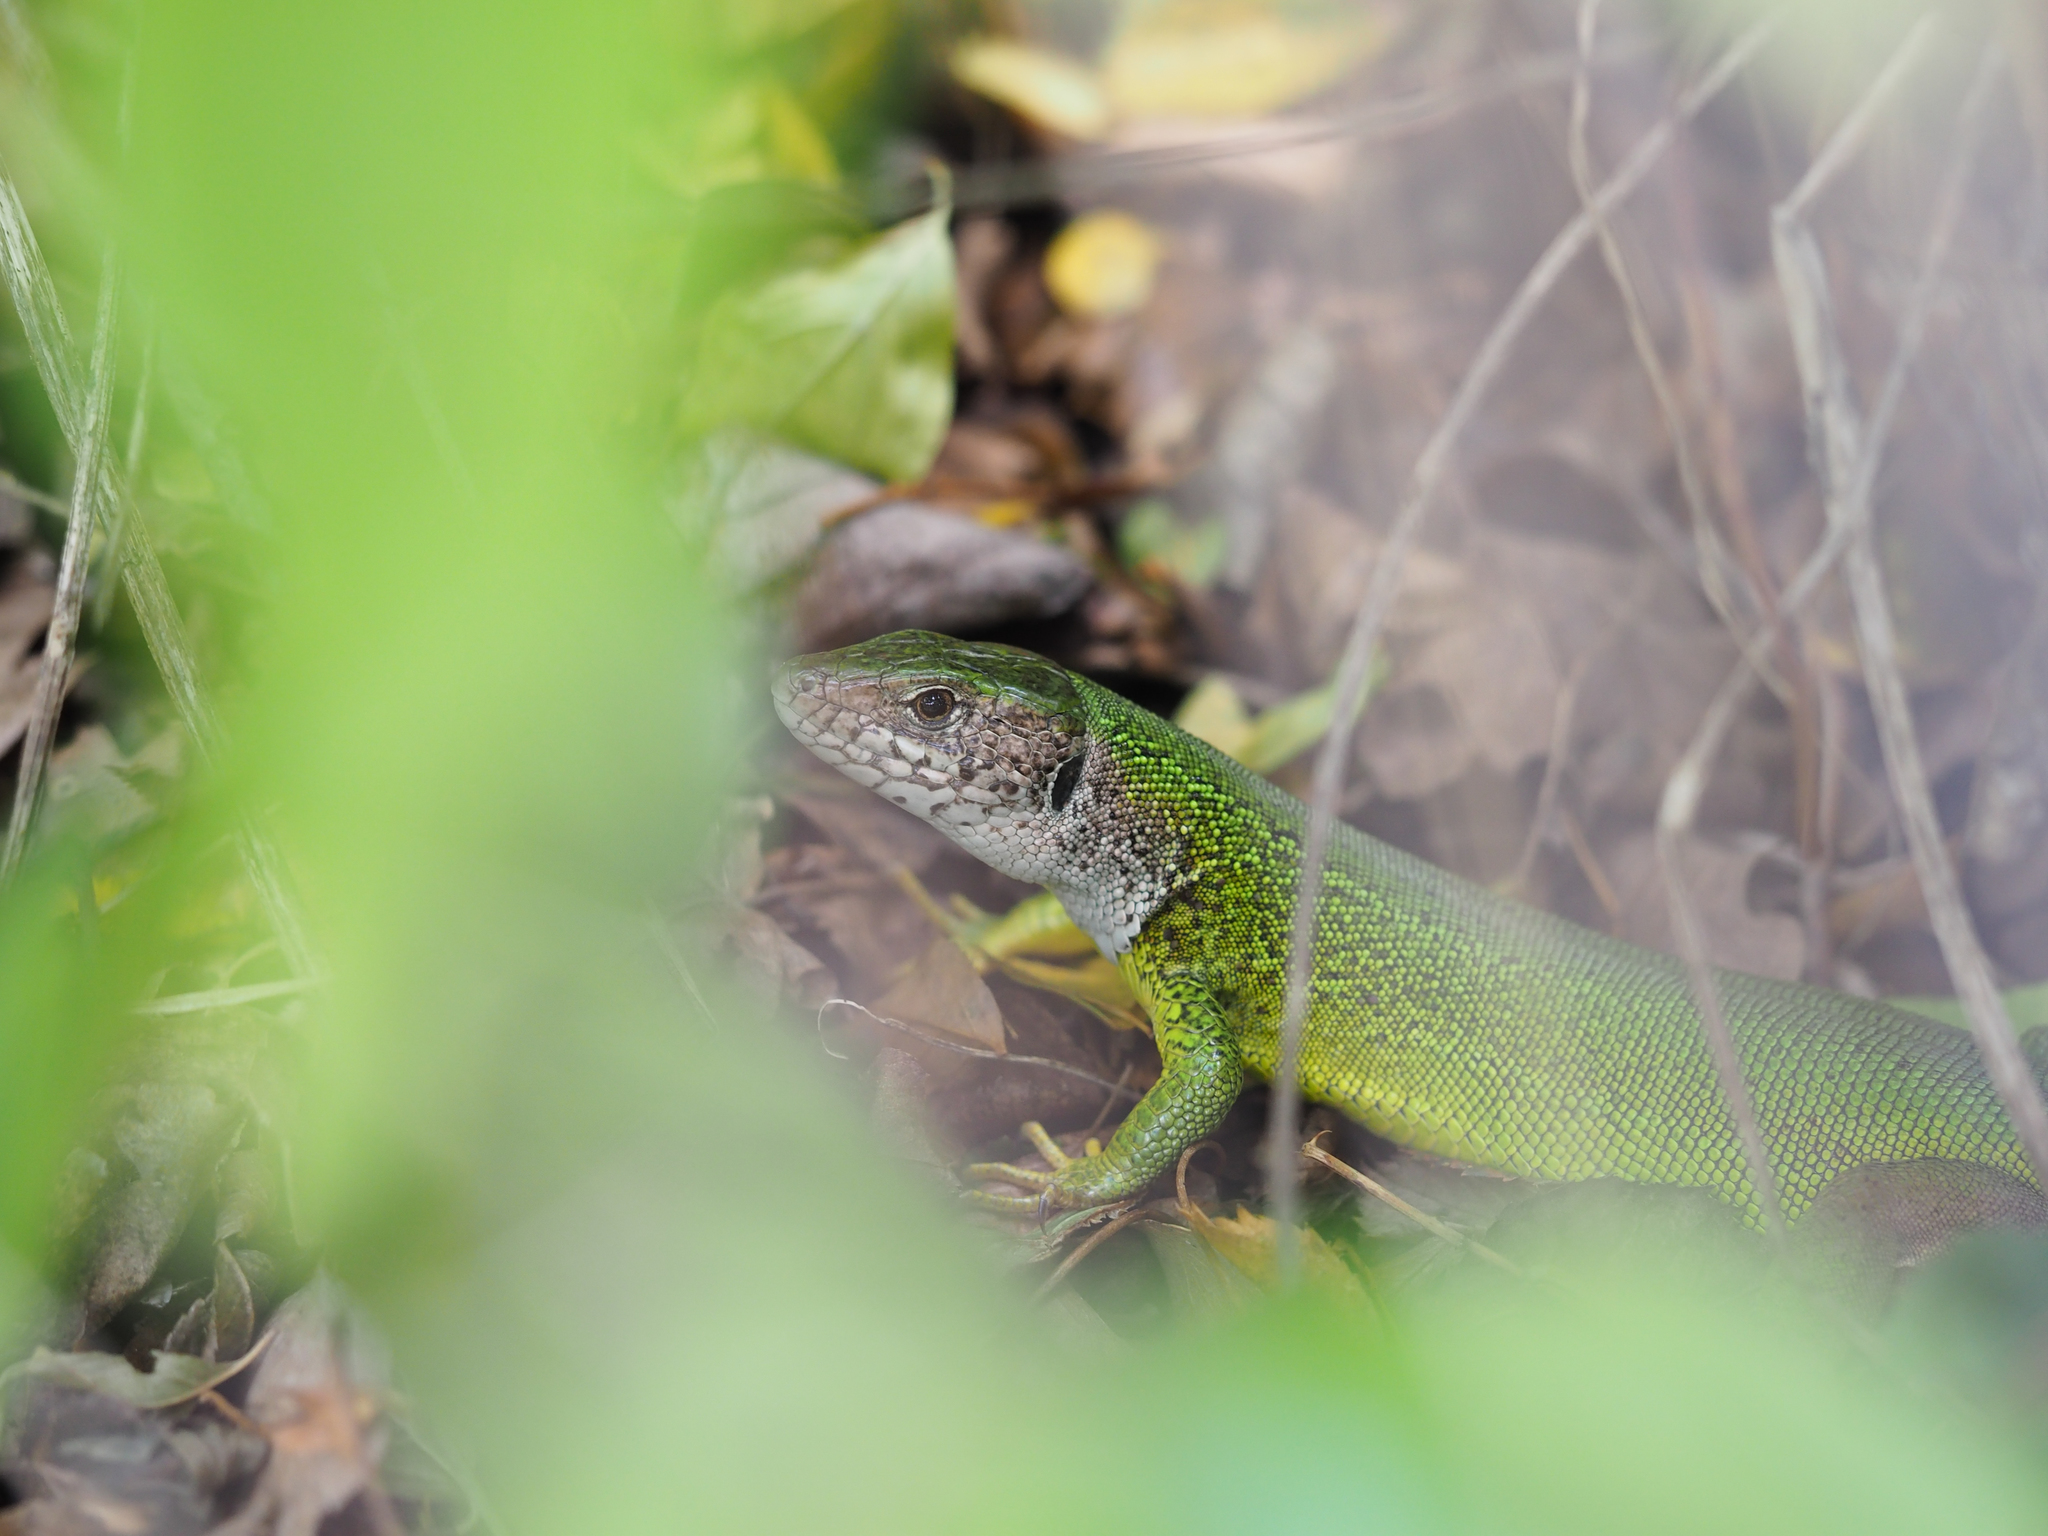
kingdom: Animalia
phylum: Chordata
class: Squamata
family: Lacertidae
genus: Lacerta
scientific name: Lacerta viridis
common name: European green lizard
